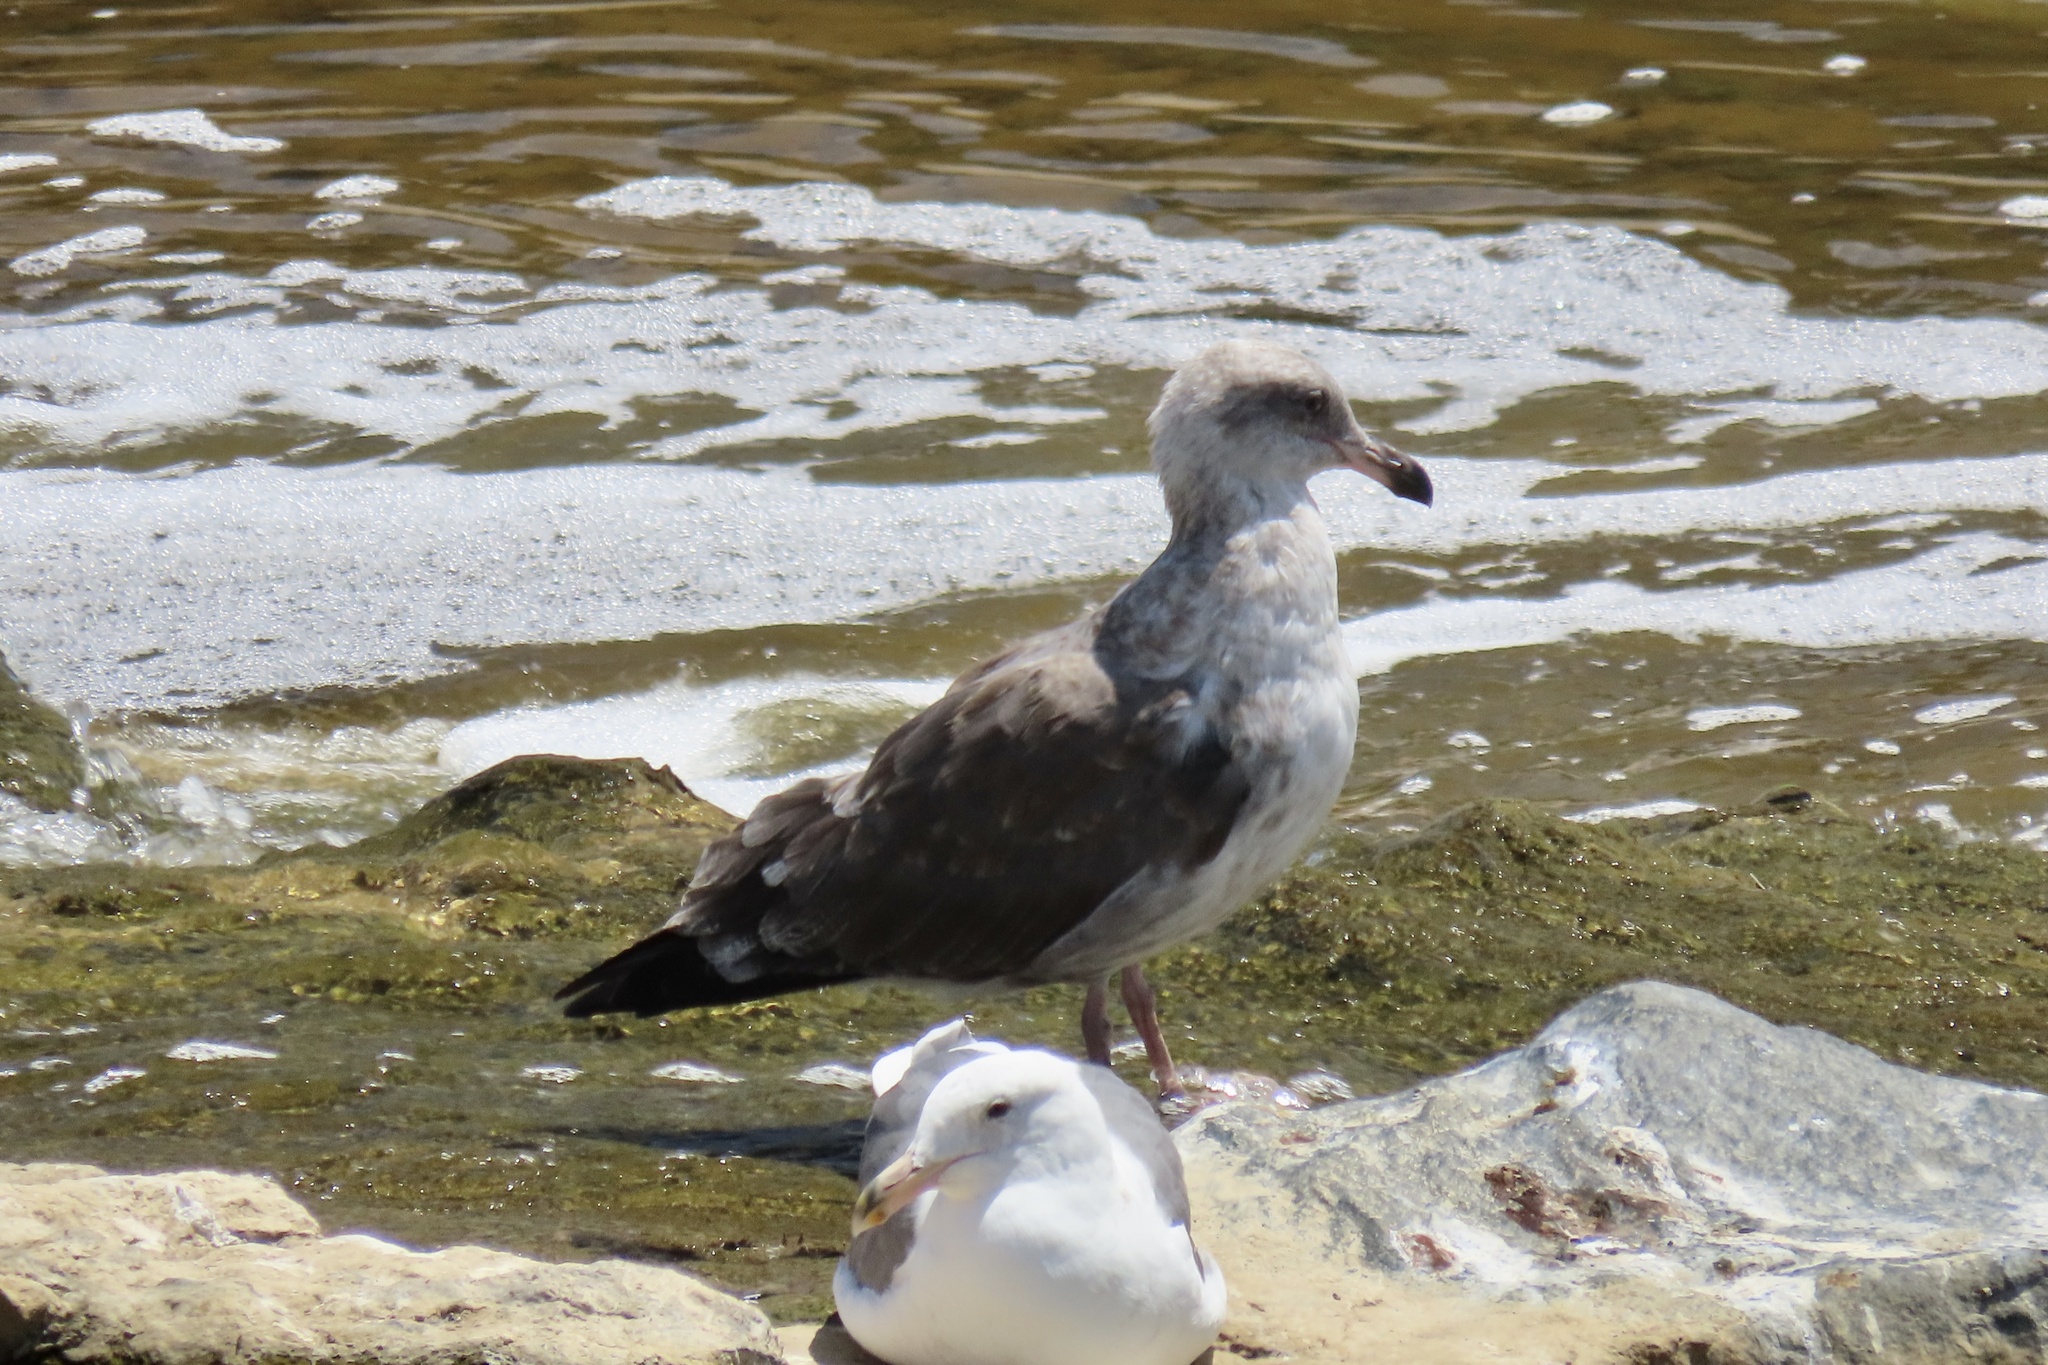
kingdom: Animalia
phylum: Chordata
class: Aves
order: Charadriiformes
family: Laridae
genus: Larus
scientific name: Larus occidentalis
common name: Western gull
